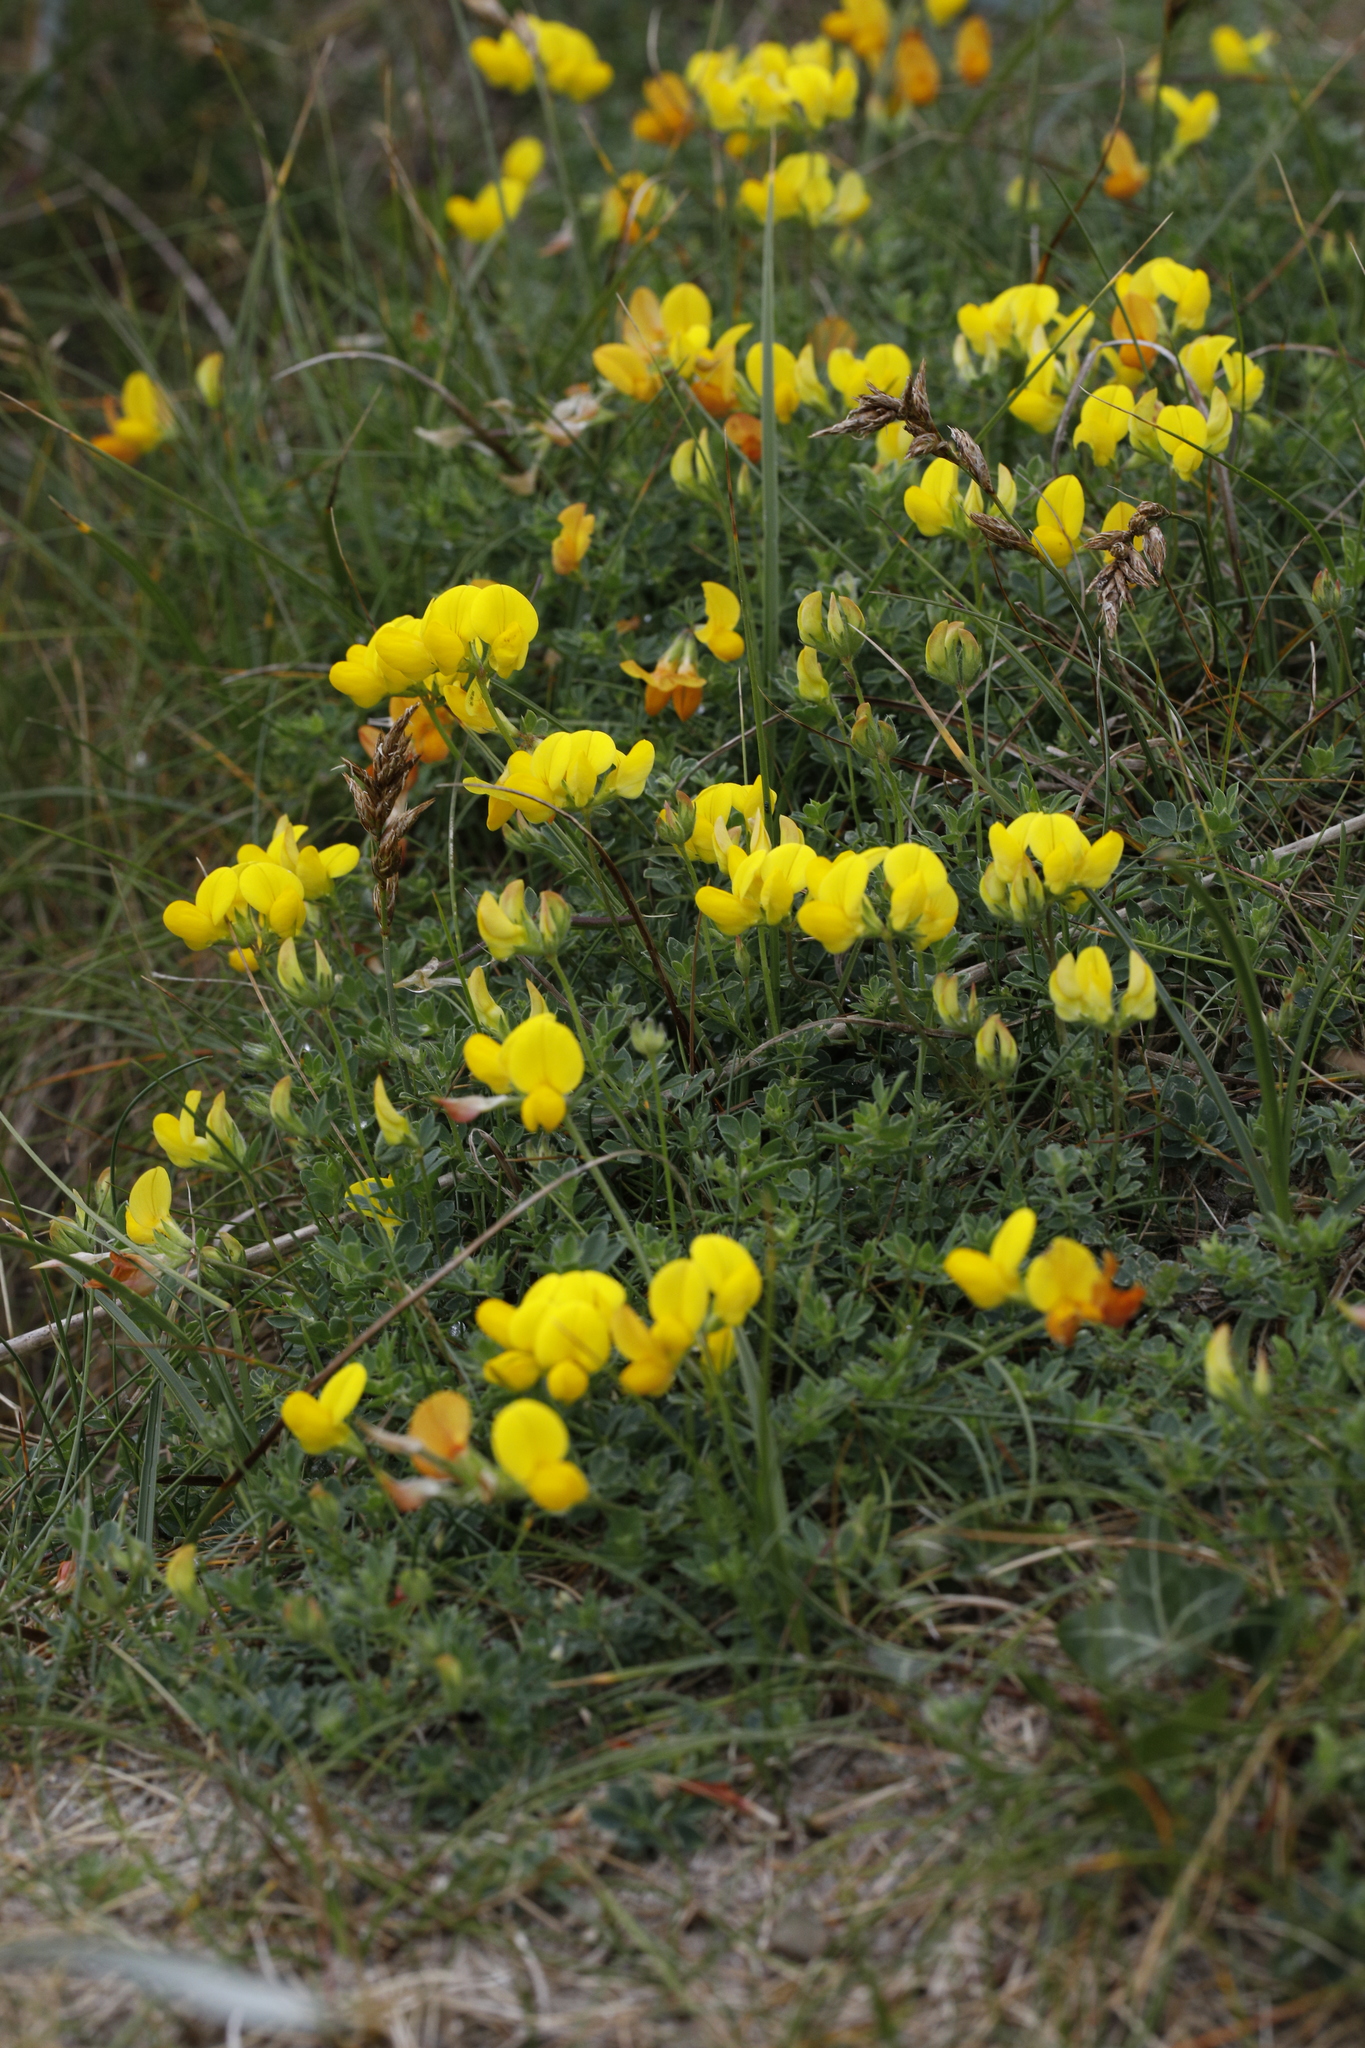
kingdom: Plantae
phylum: Tracheophyta
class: Magnoliopsida
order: Fabales
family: Fabaceae
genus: Lotus
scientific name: Lotus corniculatus
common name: Common bird's-foot-trefoil
